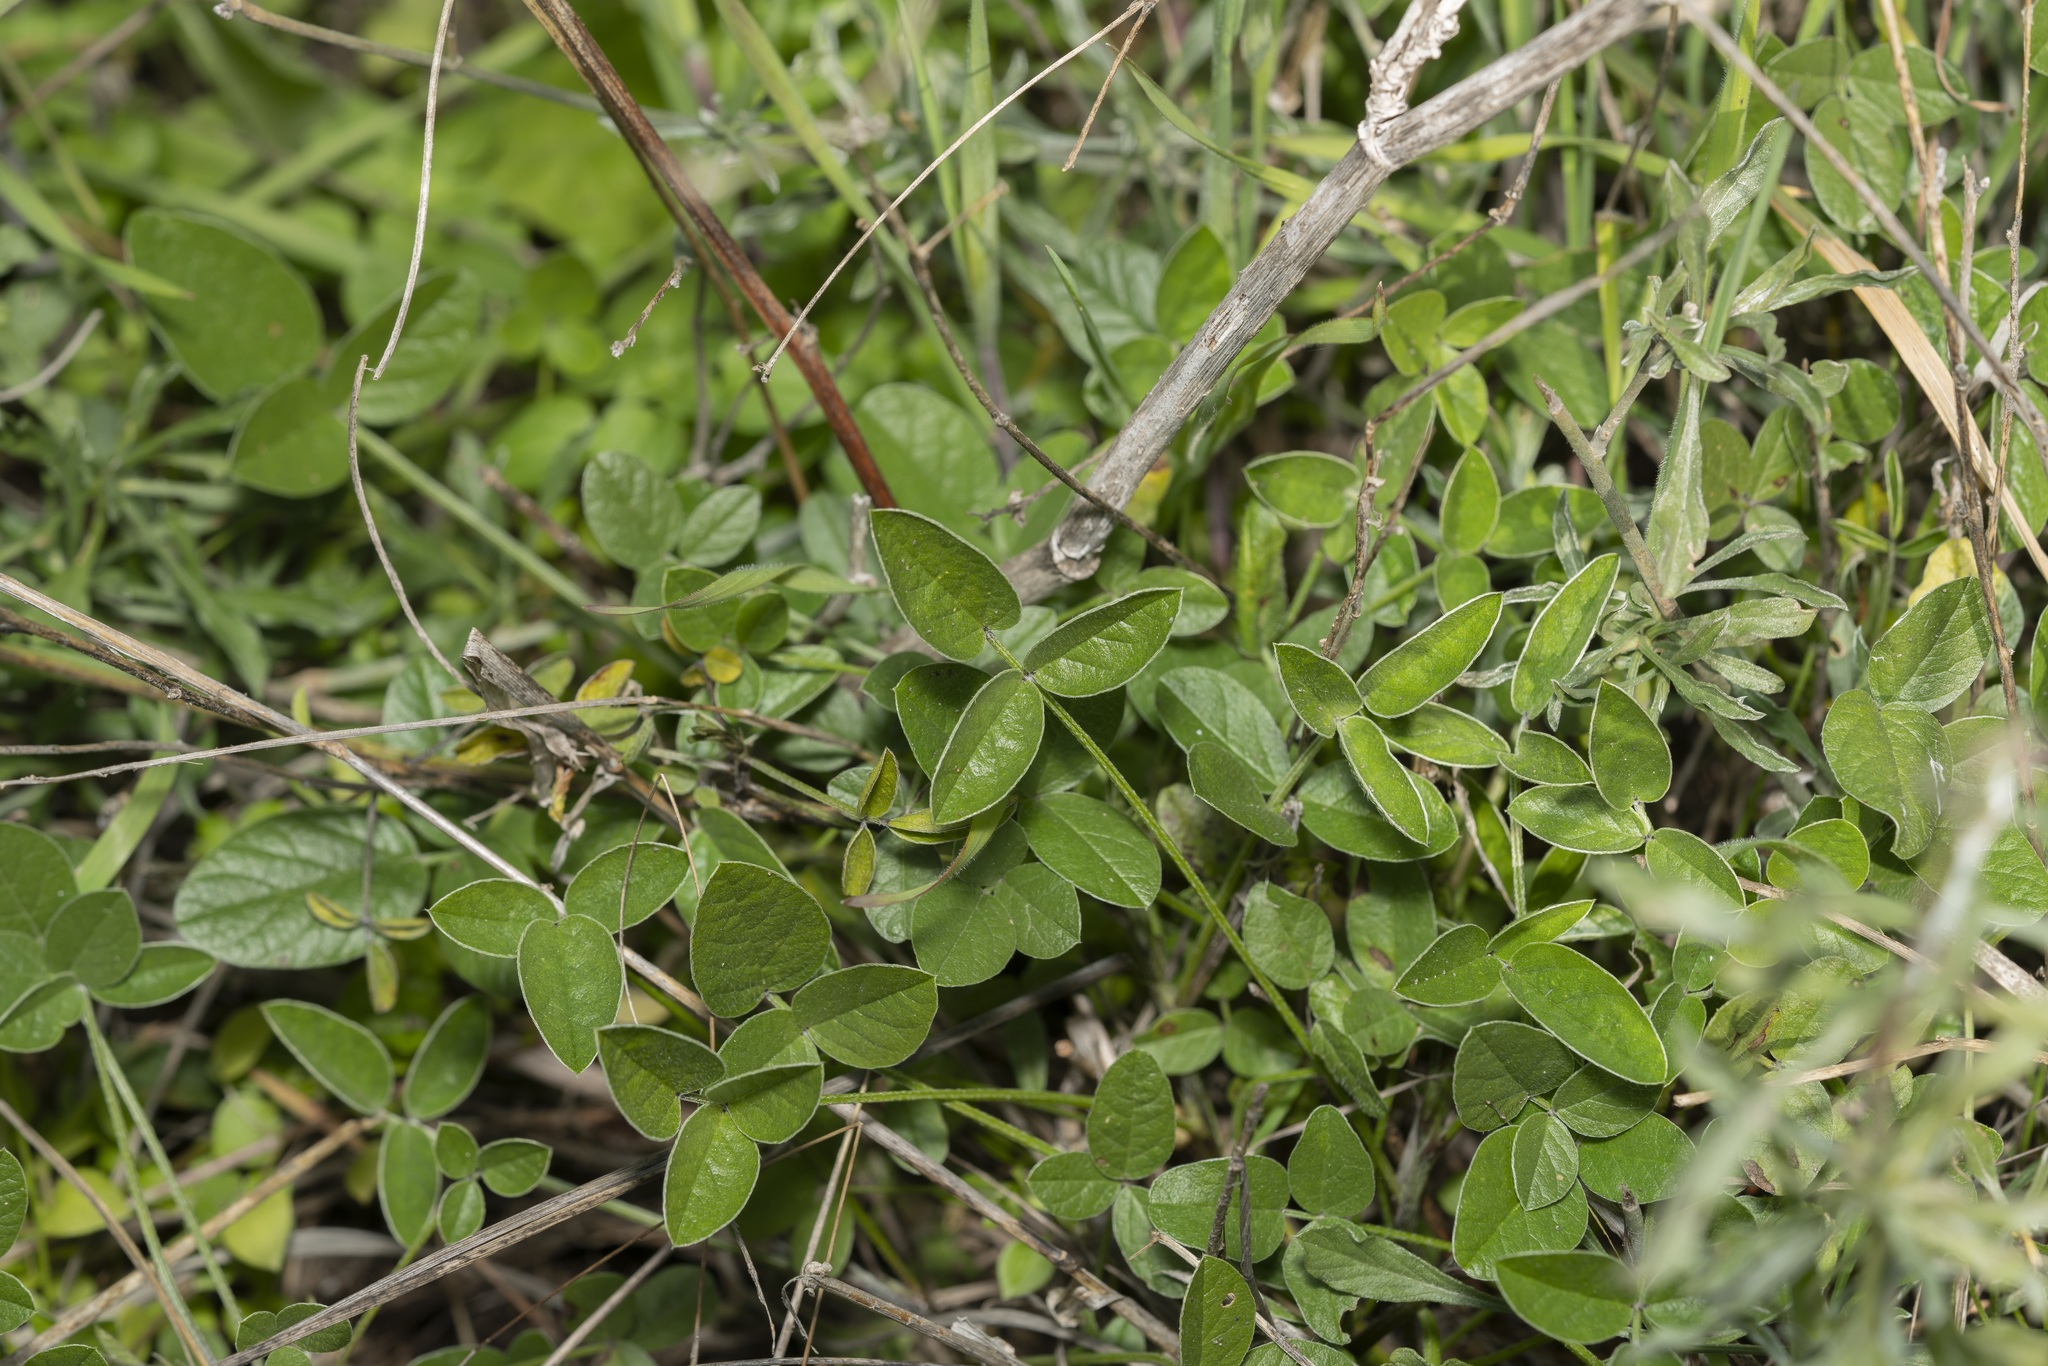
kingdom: Plantae
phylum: Tracheophyta
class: Magnoliopsida
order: Fabales
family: Fabaceae
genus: Bituminaria
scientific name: Bituminaria bituminosa
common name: Arabian pea
